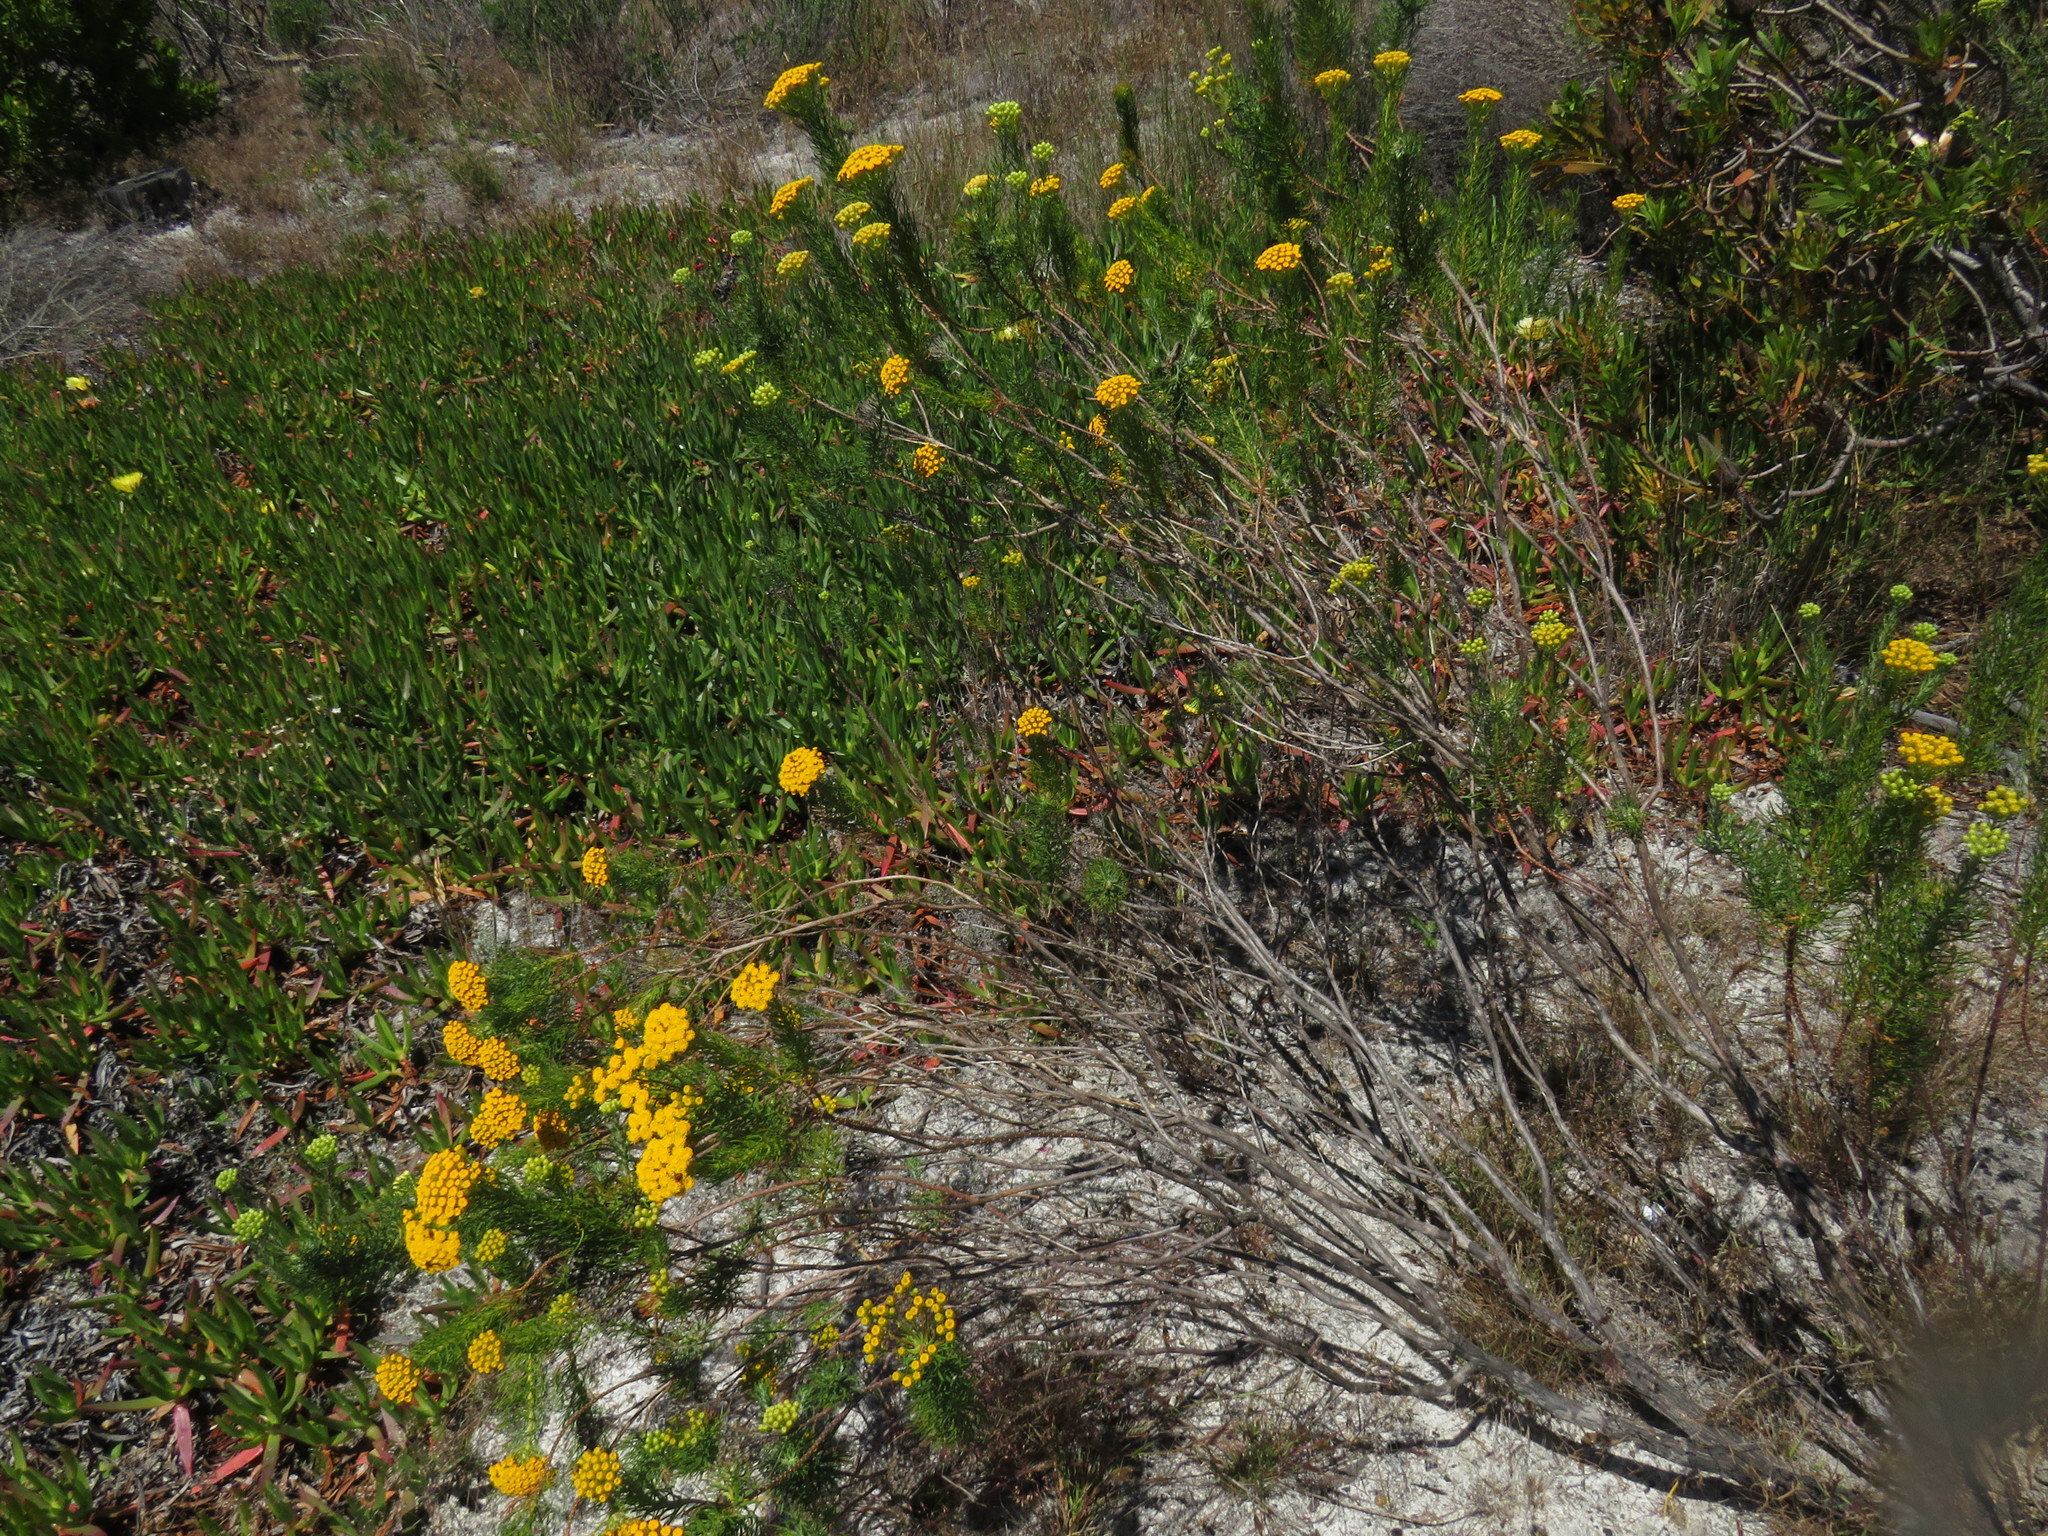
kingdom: Plantae
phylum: Tracheophyta
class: Magnoliopsida
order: Asterales
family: Asteraceae
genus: Athanasia
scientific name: Athanasia crithmifolia
